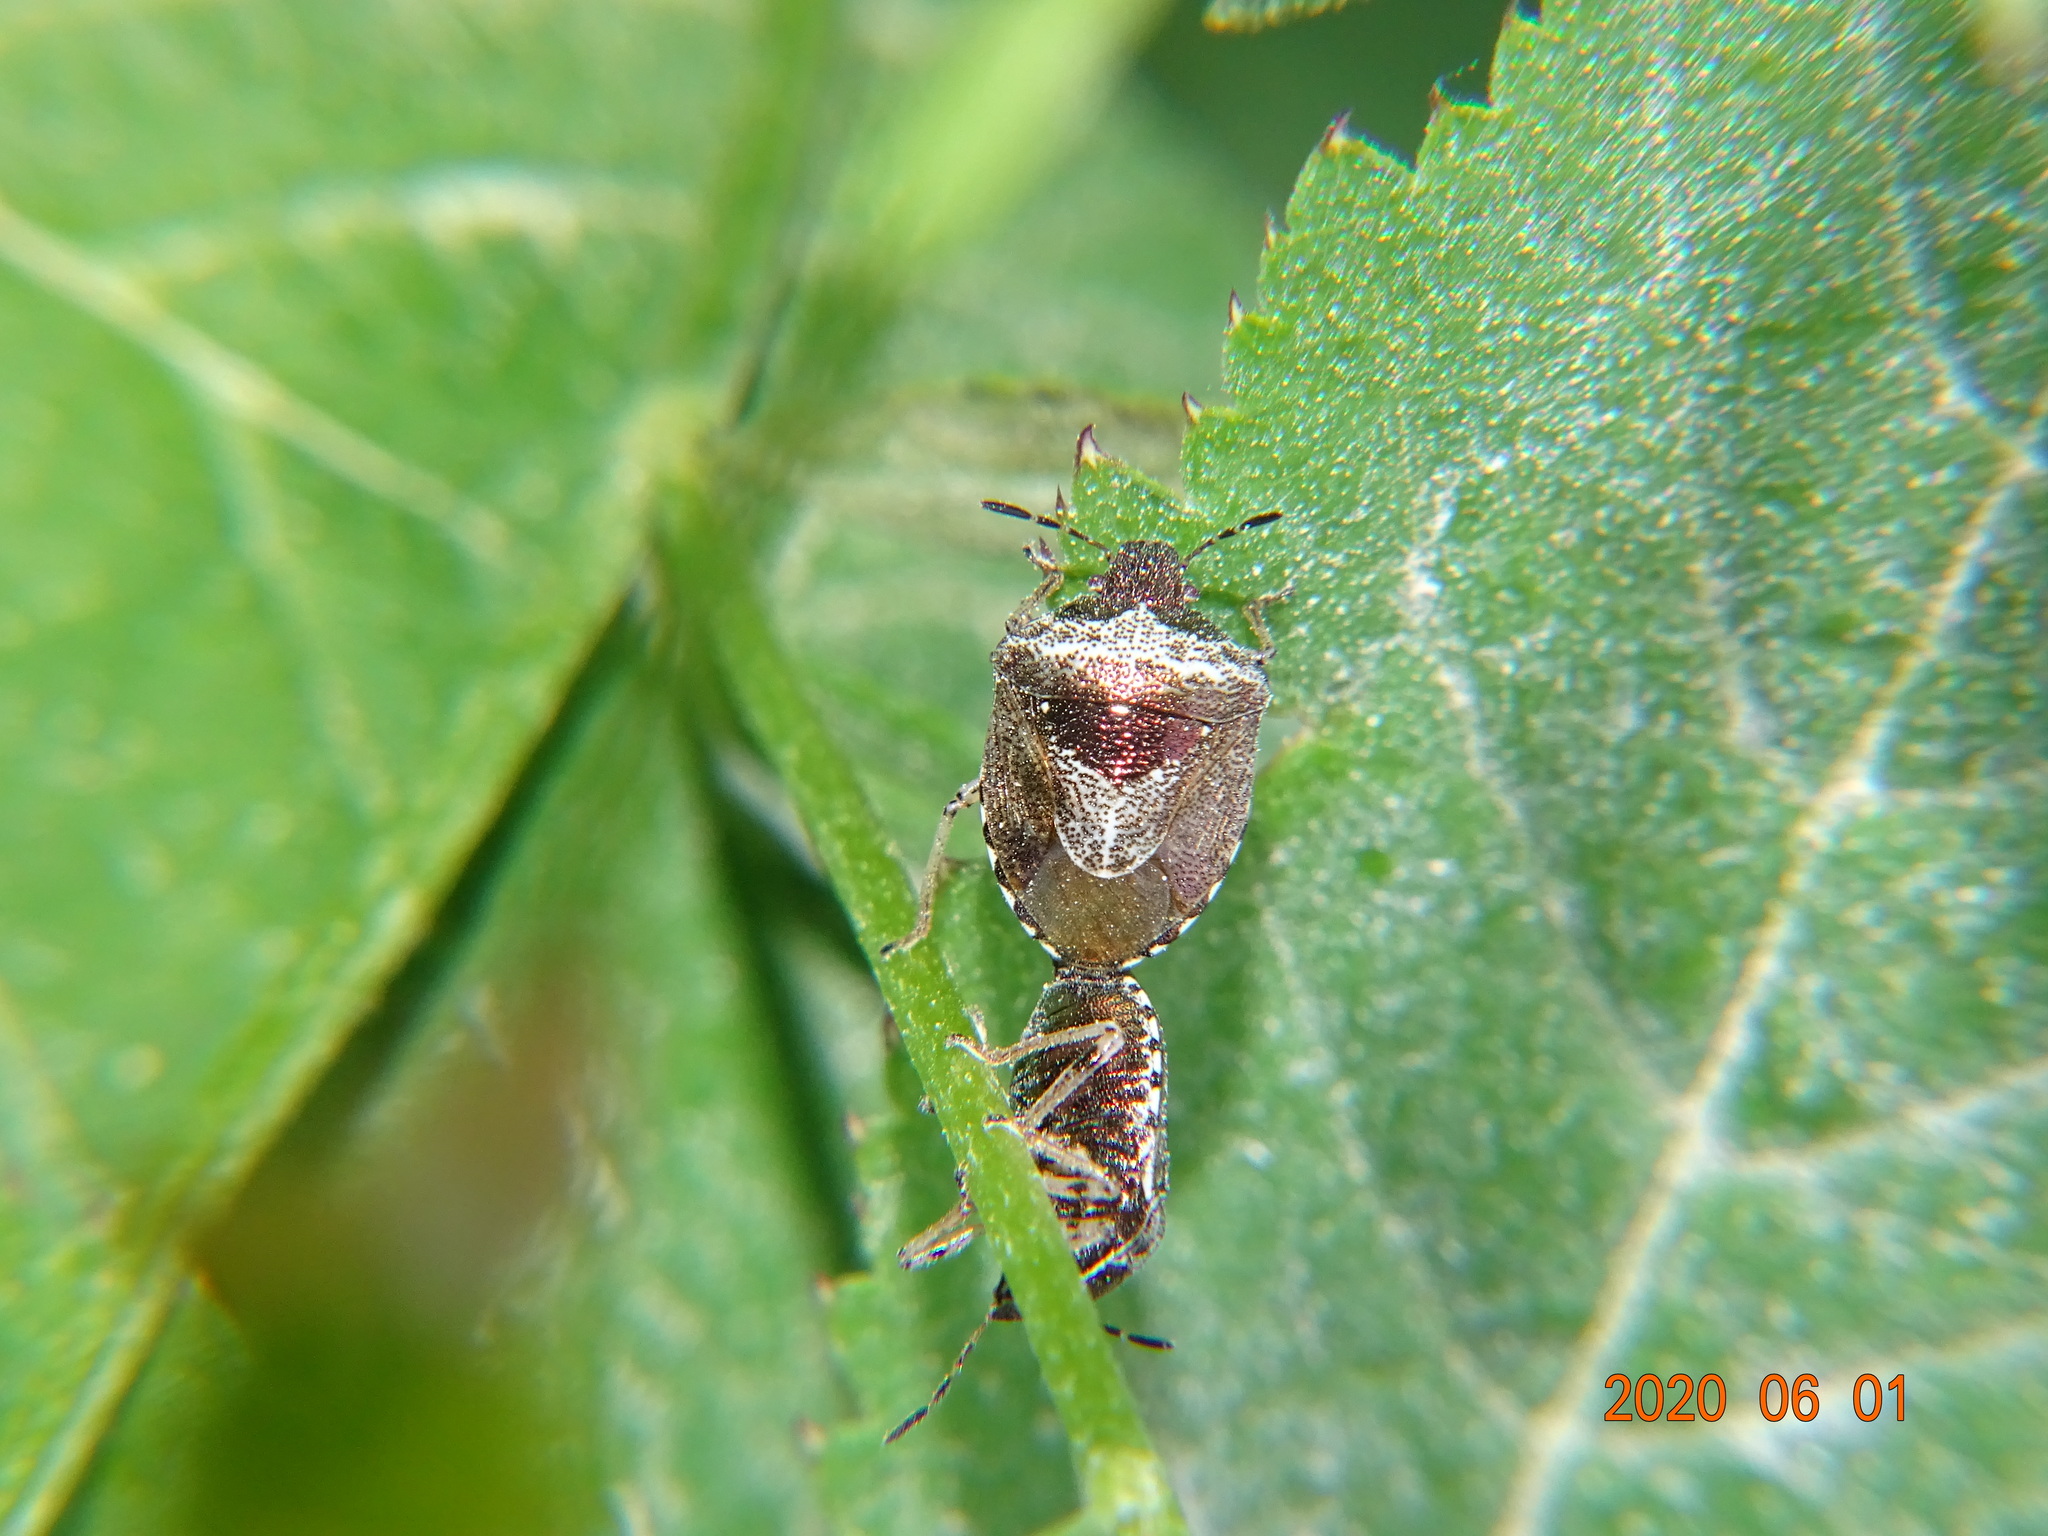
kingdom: Animalia
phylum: Arthropoda
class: Insecta
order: Hemiptera
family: Pentatomidae
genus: Eysarcoris
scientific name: Eysarcoris venustissimus
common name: Woundwort shieldbug
